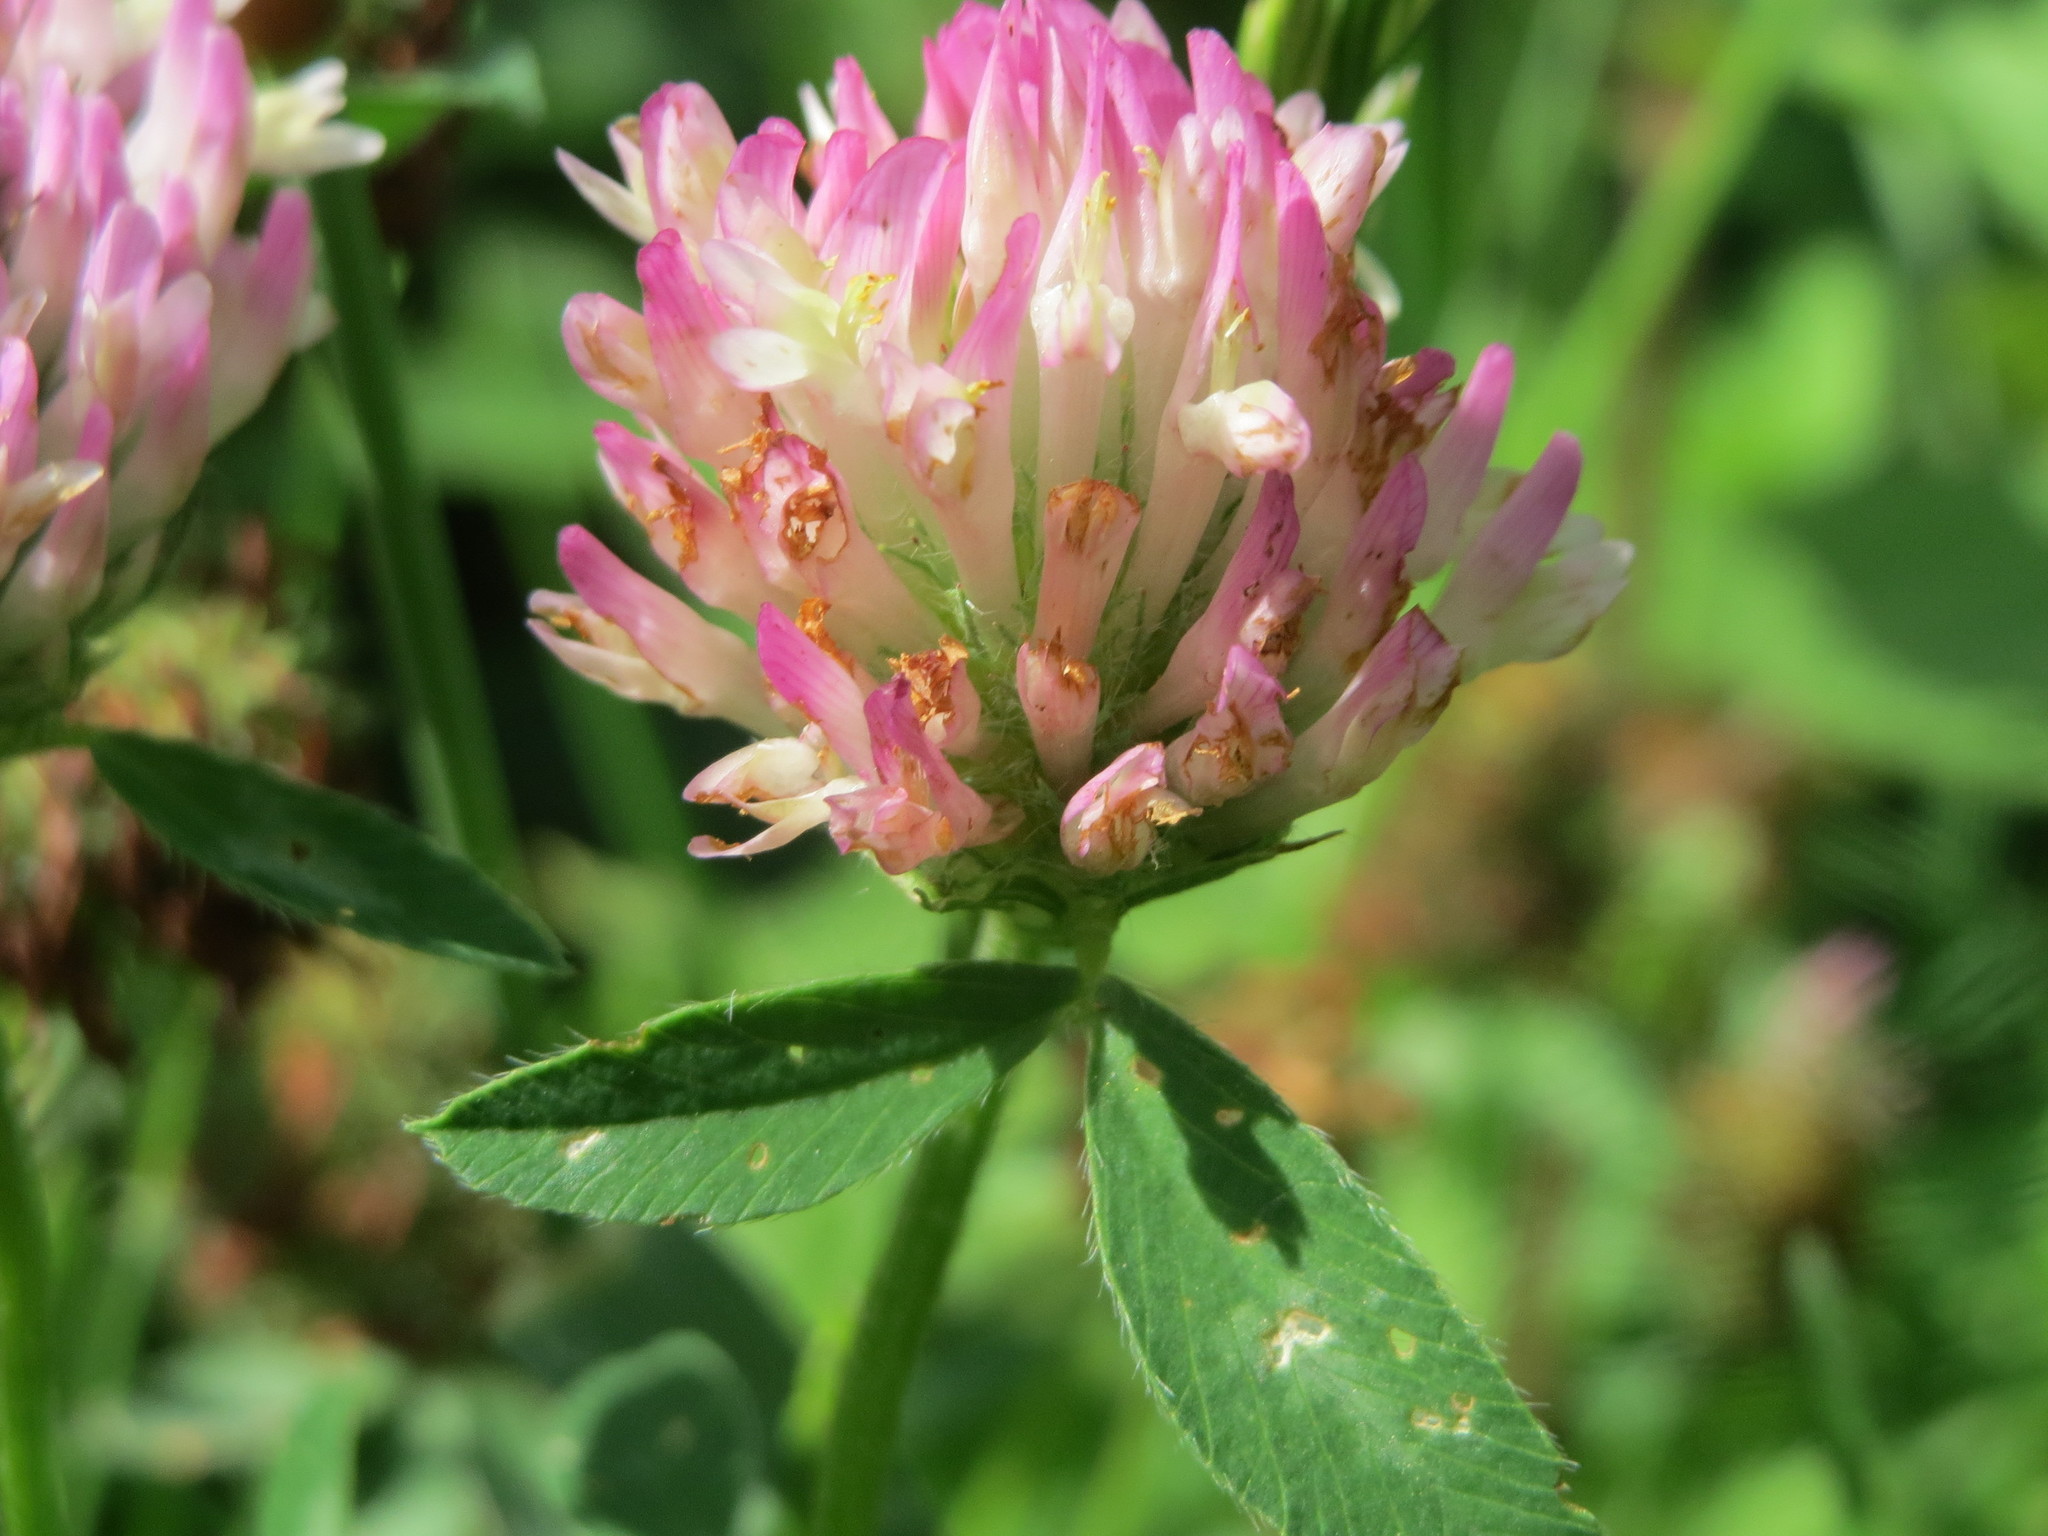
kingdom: Plantae
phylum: Tracheophyta
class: Magnoliopsida
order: Fabales
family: Fabaceae
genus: Trifolium
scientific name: Trifolium pratense
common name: Red clover
